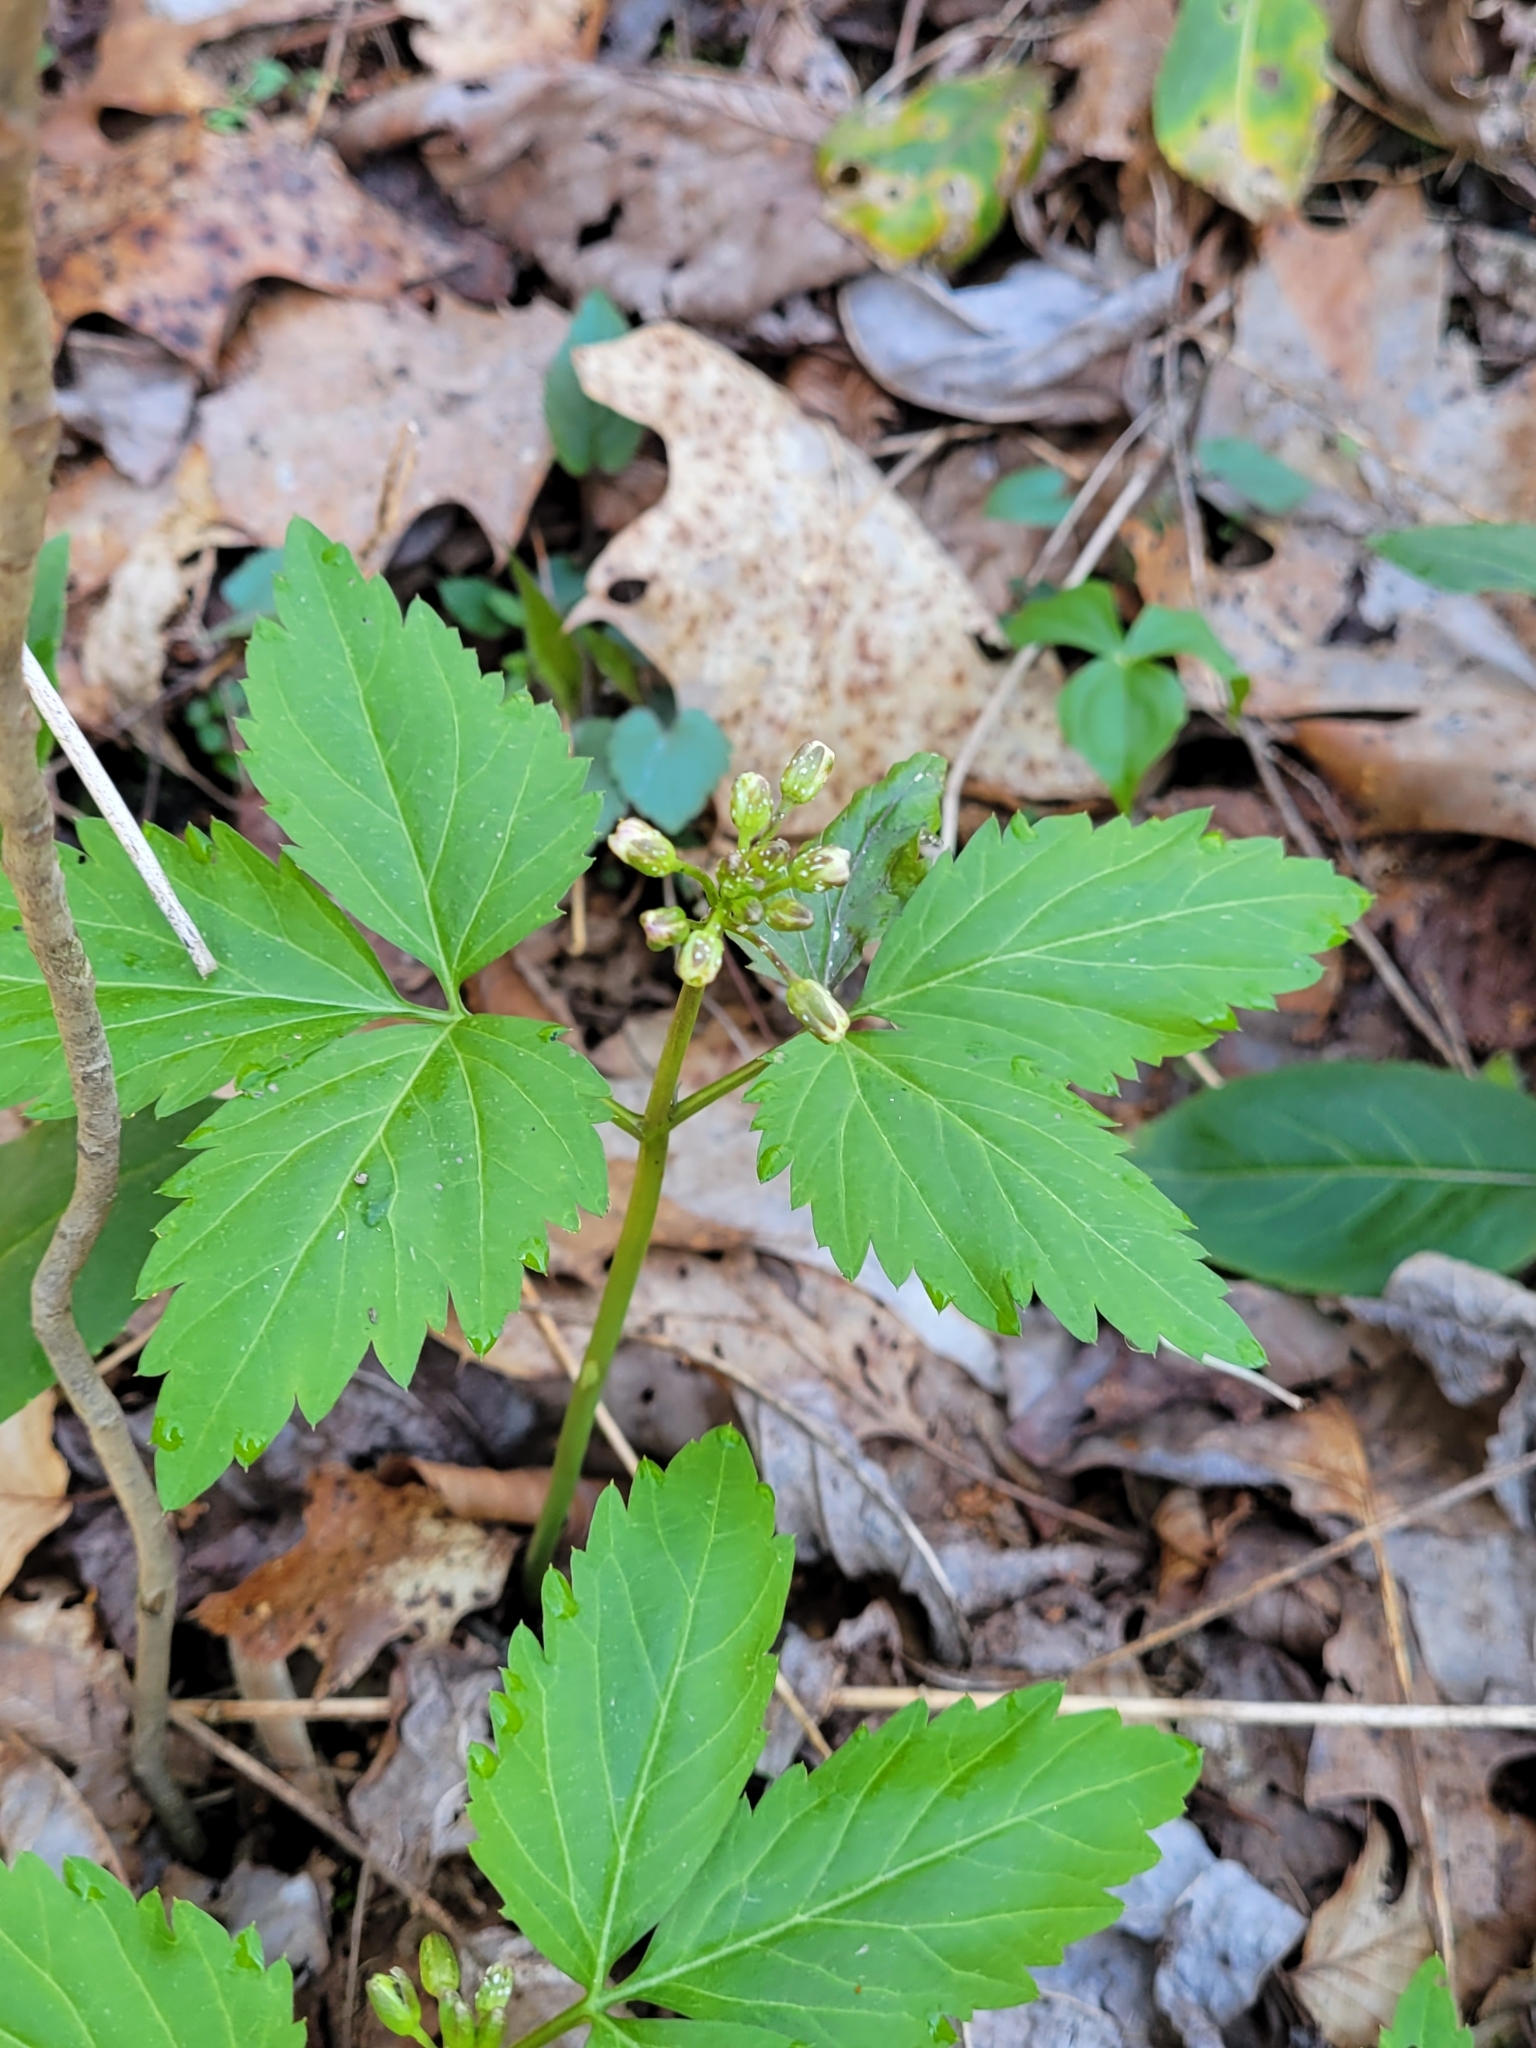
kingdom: Plantae
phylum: Tracheophyta
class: Magnoliopsida
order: Brassicales
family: Brassicaceae
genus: Cardamine
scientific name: Cardamine diphylla
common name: Broad-leaved toothwort
